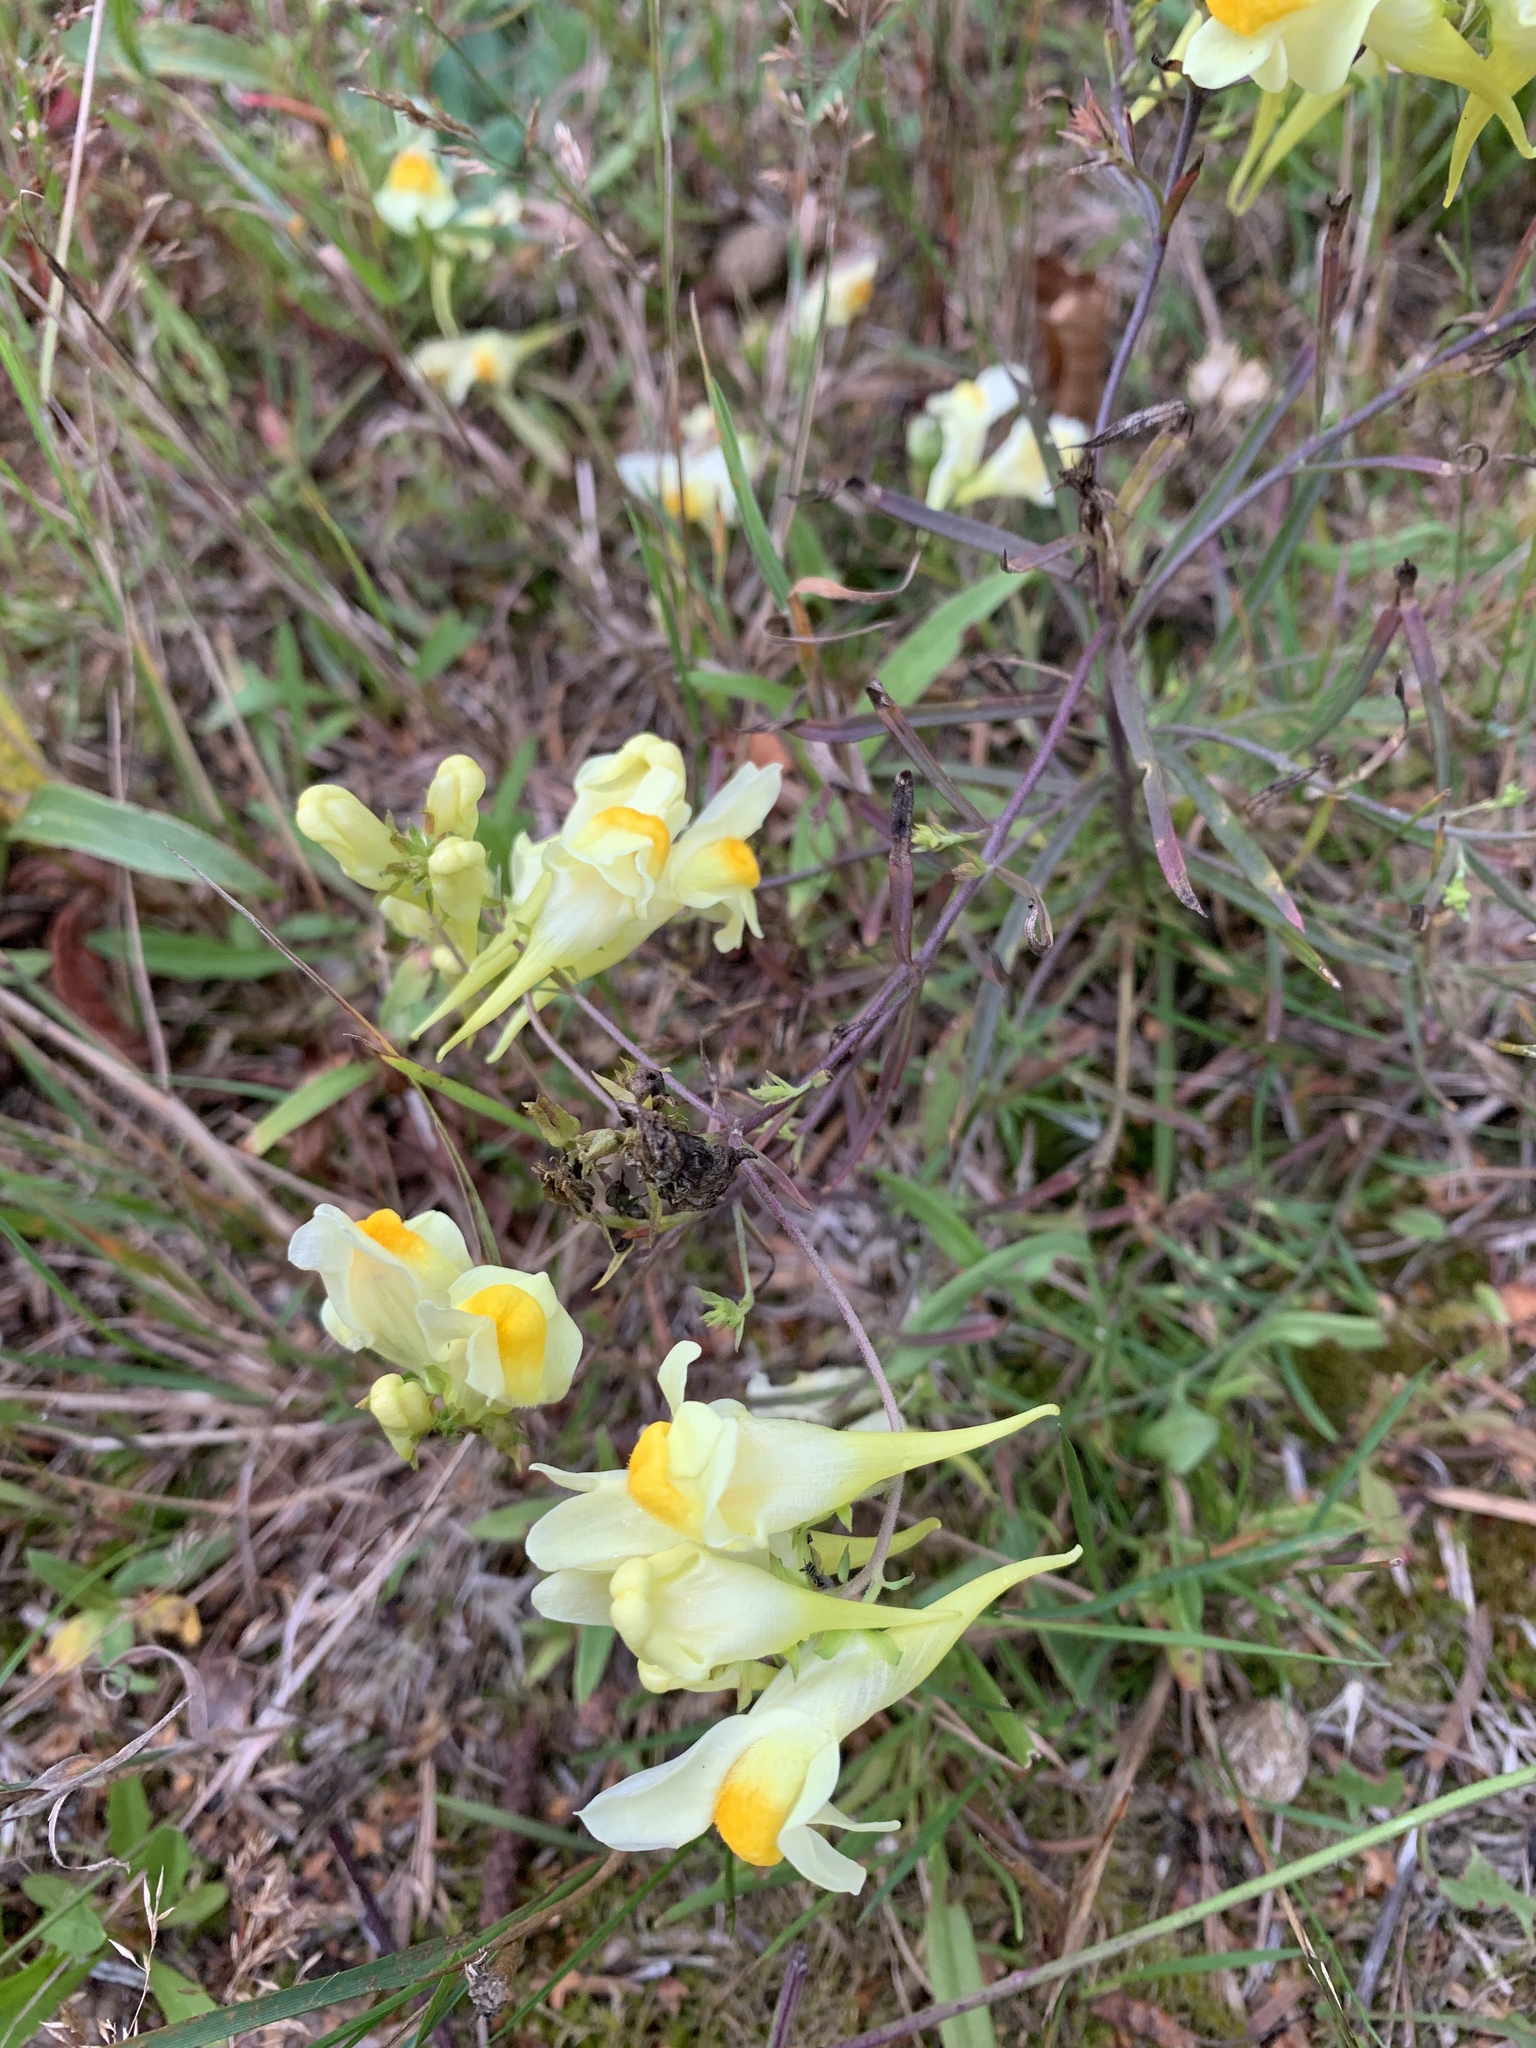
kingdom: Plantae
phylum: Tracheophyta
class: Magnoliopsida
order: Lamiales
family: Plantaginaceae
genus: Linaria
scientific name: Linaria vulgaris
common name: Butter and eggs
